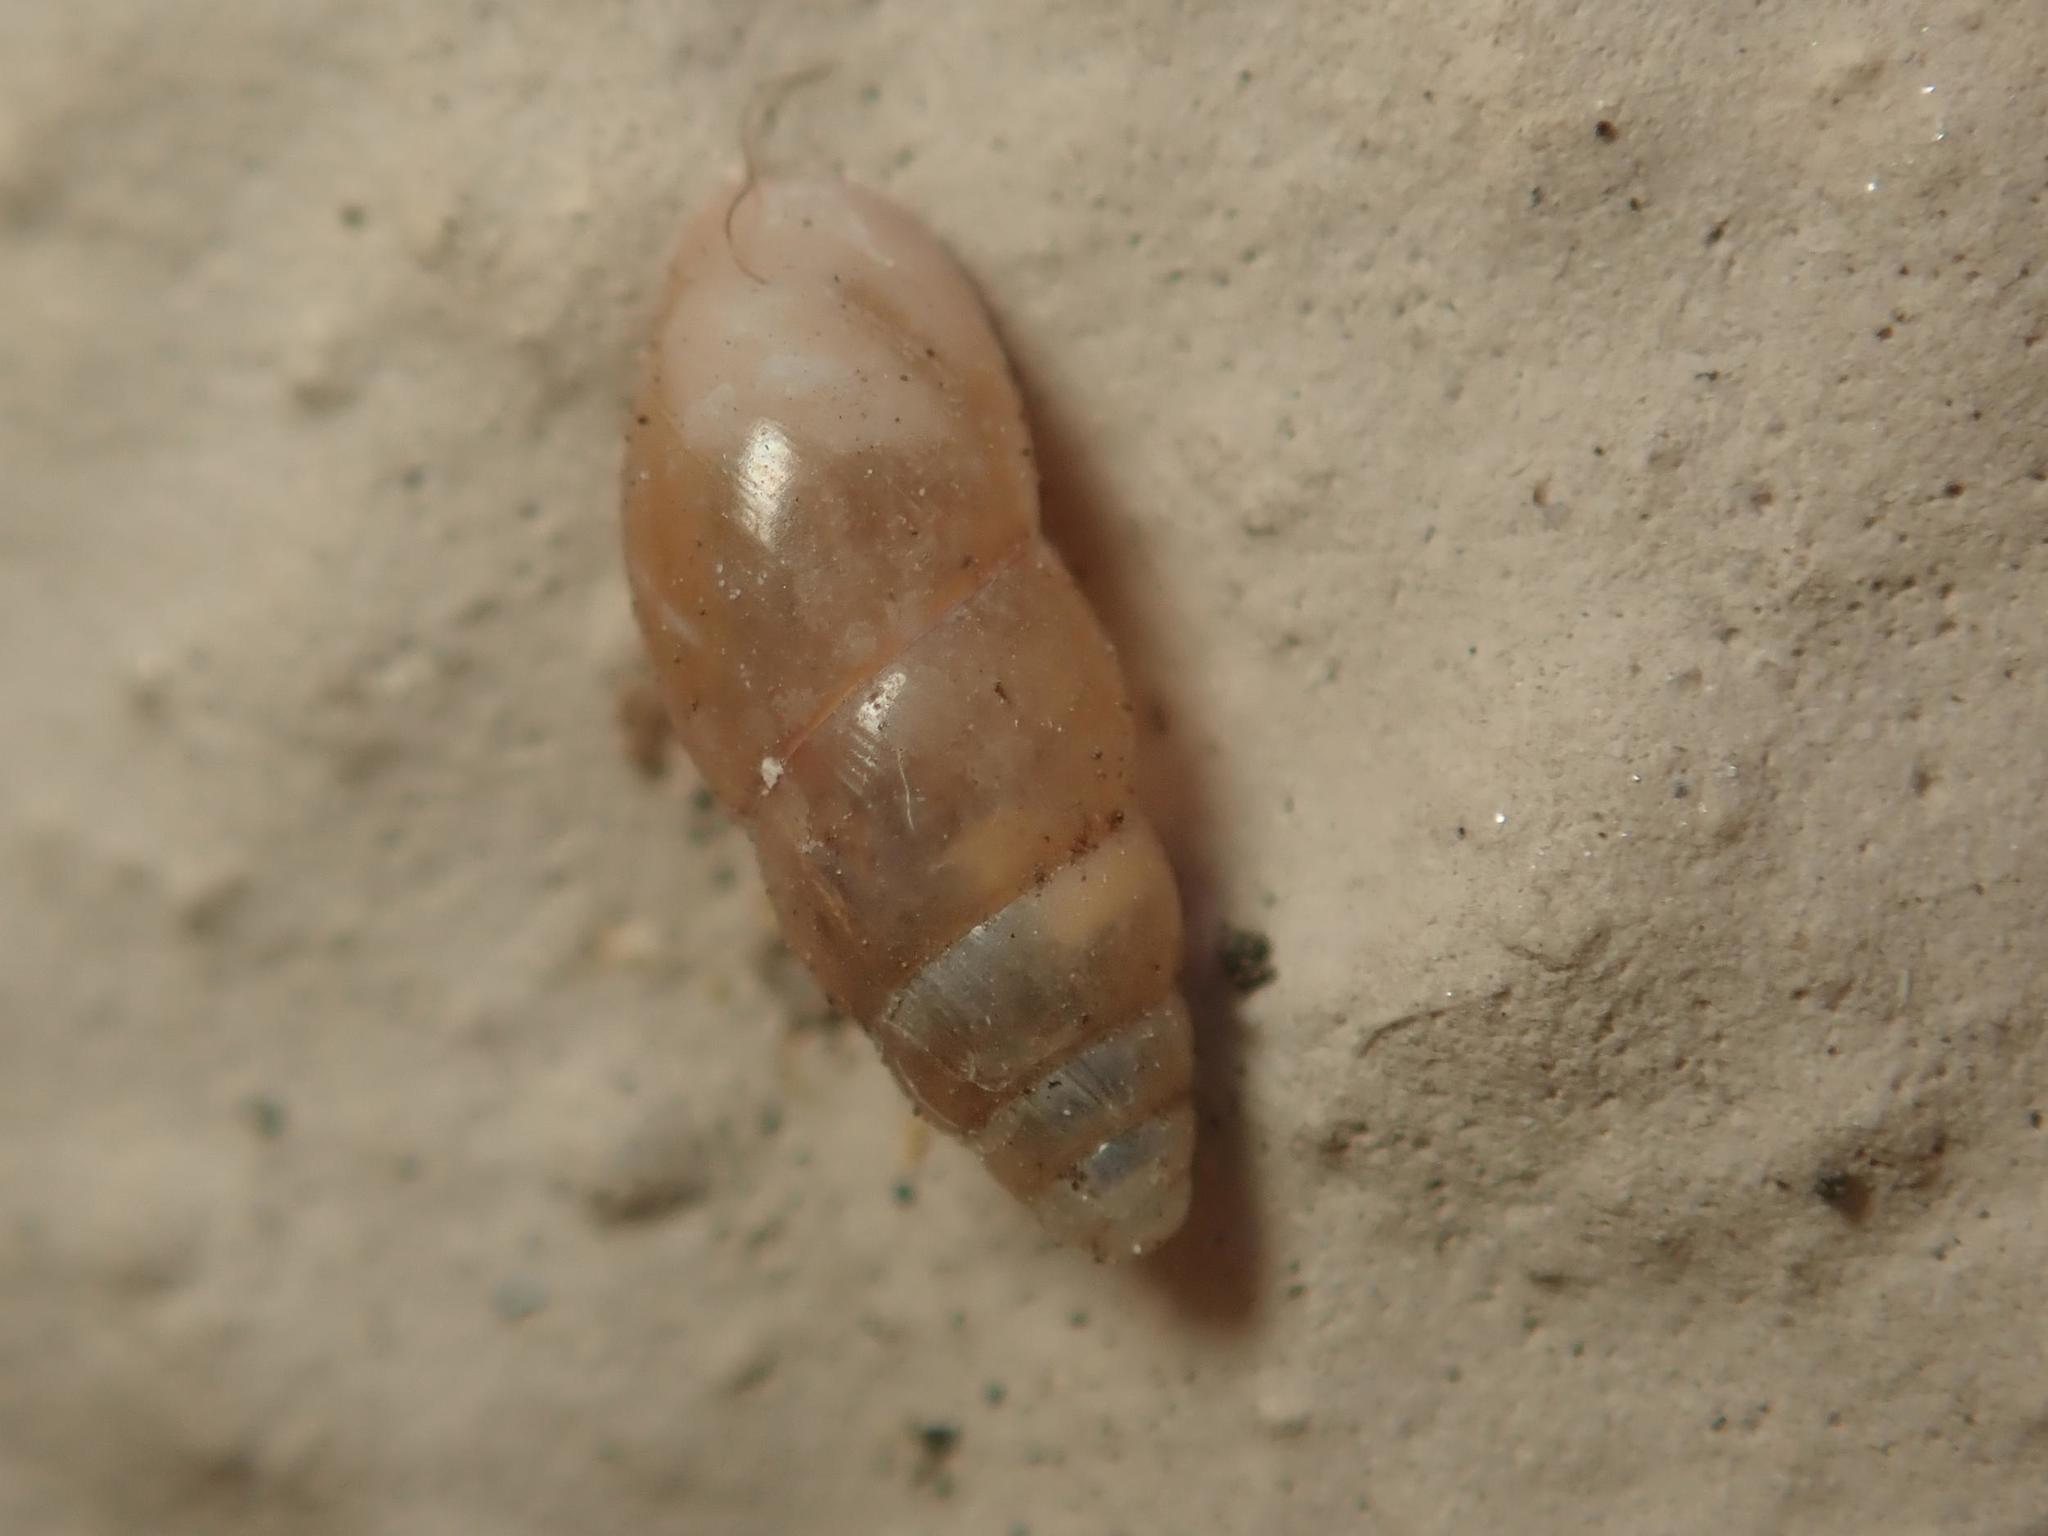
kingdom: Animalia
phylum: Mollusca
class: Gastropoda
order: Stylommatophora
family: Cochlicopidae
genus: Cochlicopa
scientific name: Cochlicopa lubrica
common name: Glossy pillar snail
